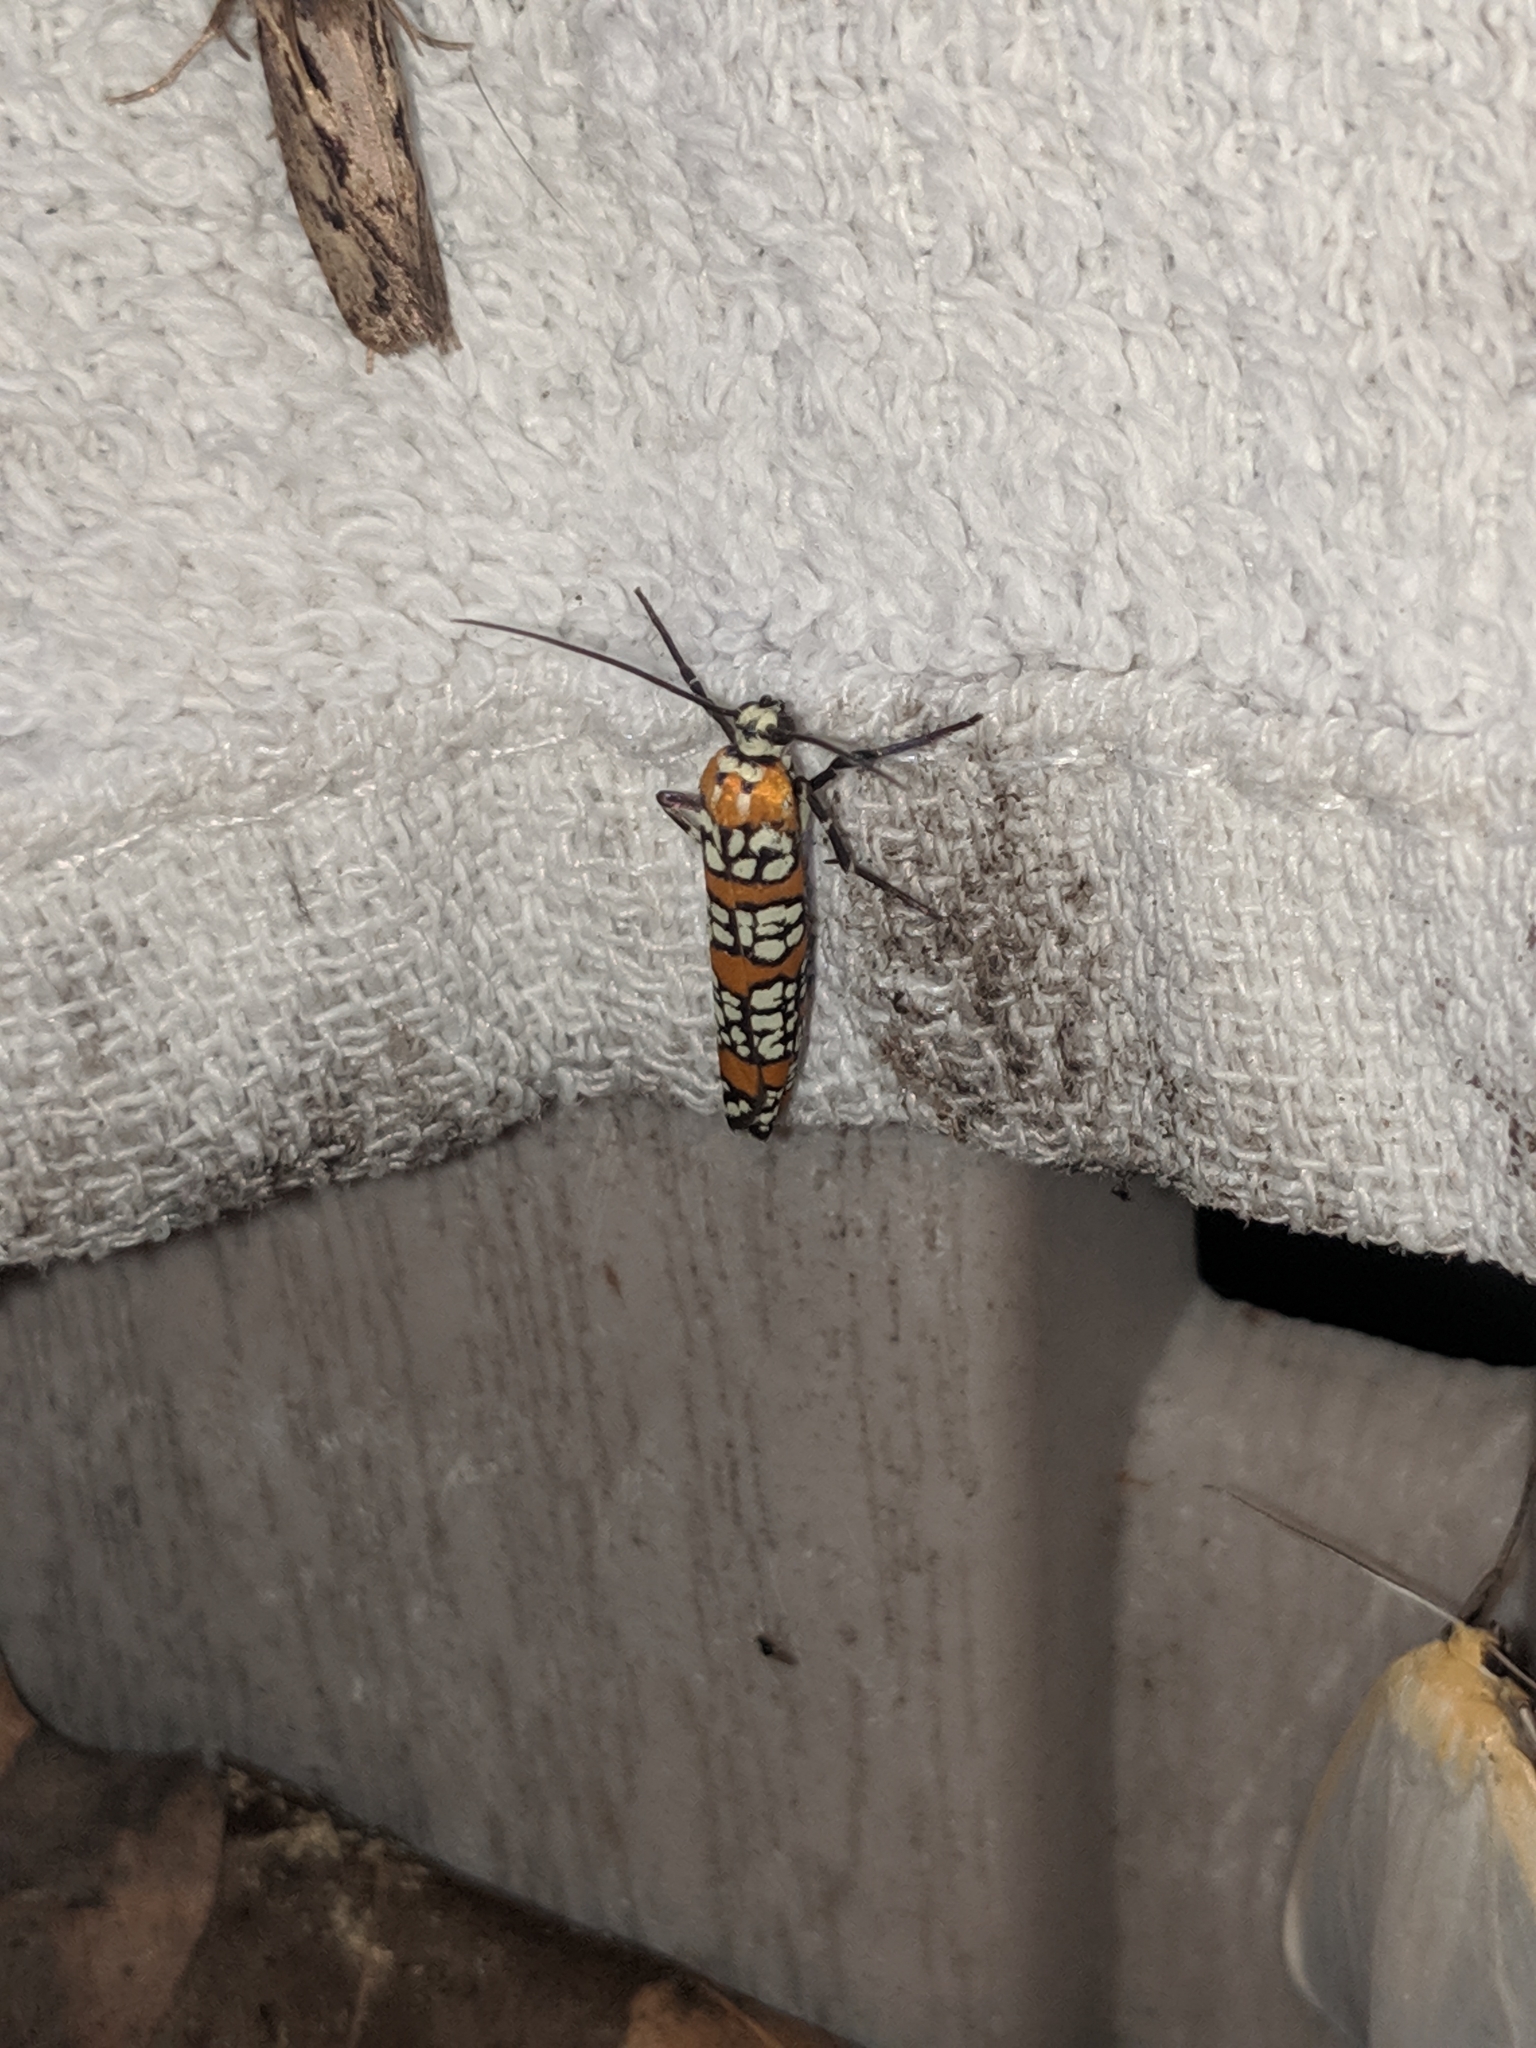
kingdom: Animalia
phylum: Arthropoda
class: Insecta
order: Lepidoptera
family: Attevidae
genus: Atteva
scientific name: Atteva punctella
